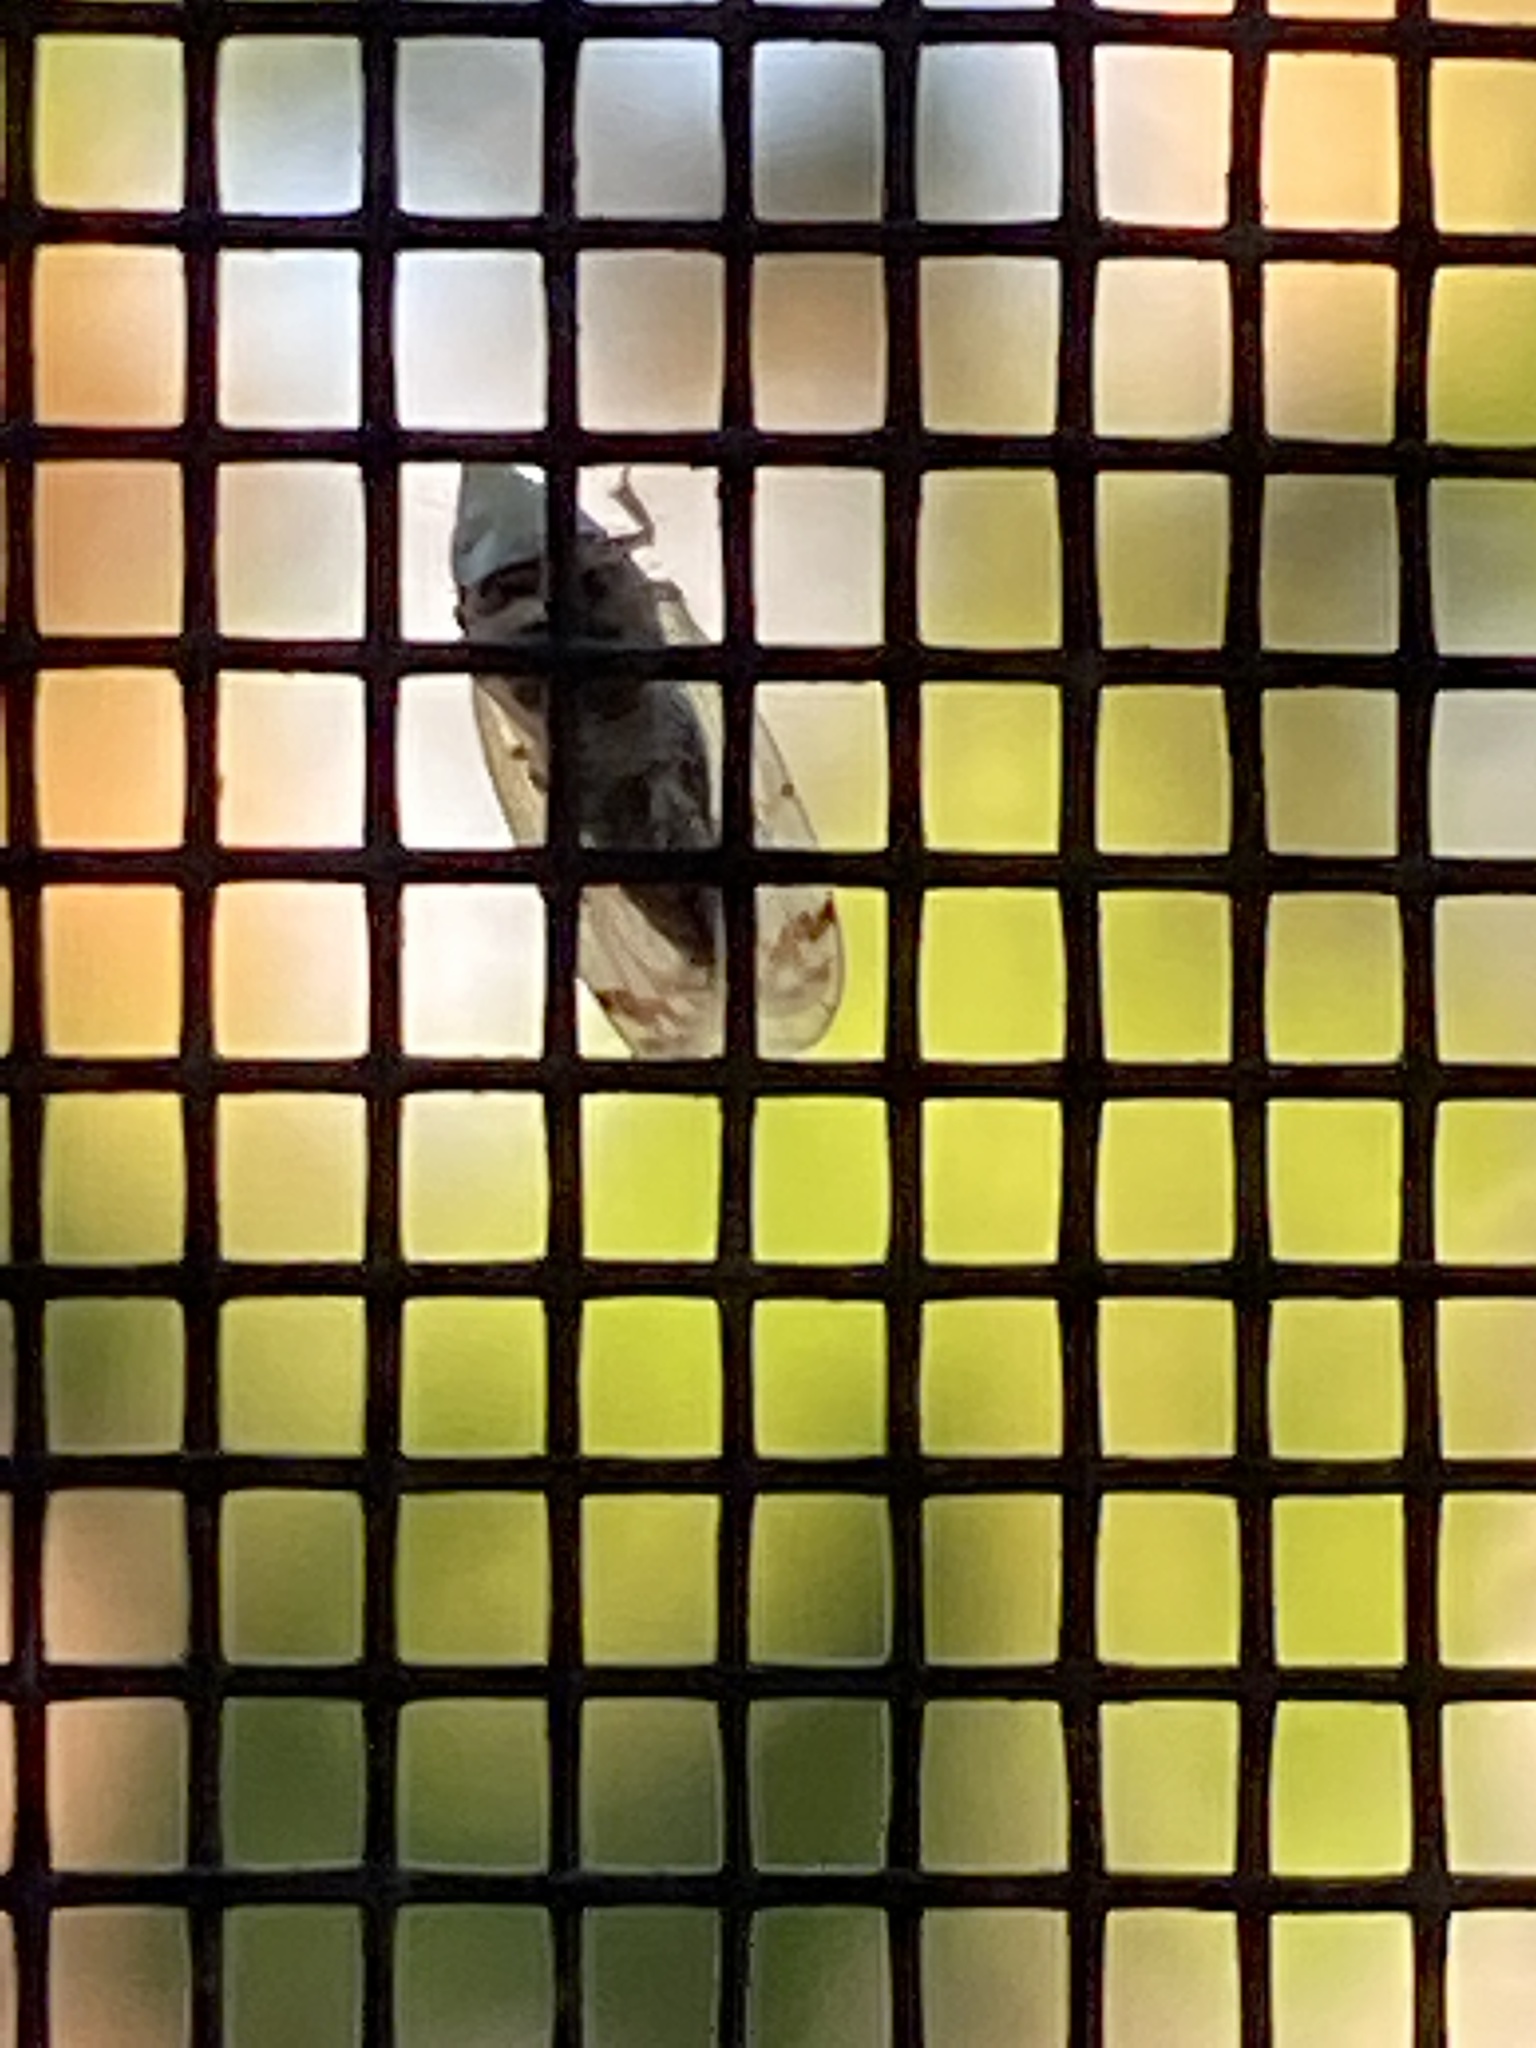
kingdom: Animalia
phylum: Arthropoda
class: Insecta
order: Hemiptera
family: Cicadellidae
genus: Japananus
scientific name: Japananus hyalinus
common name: The japanese maple leafhopper
